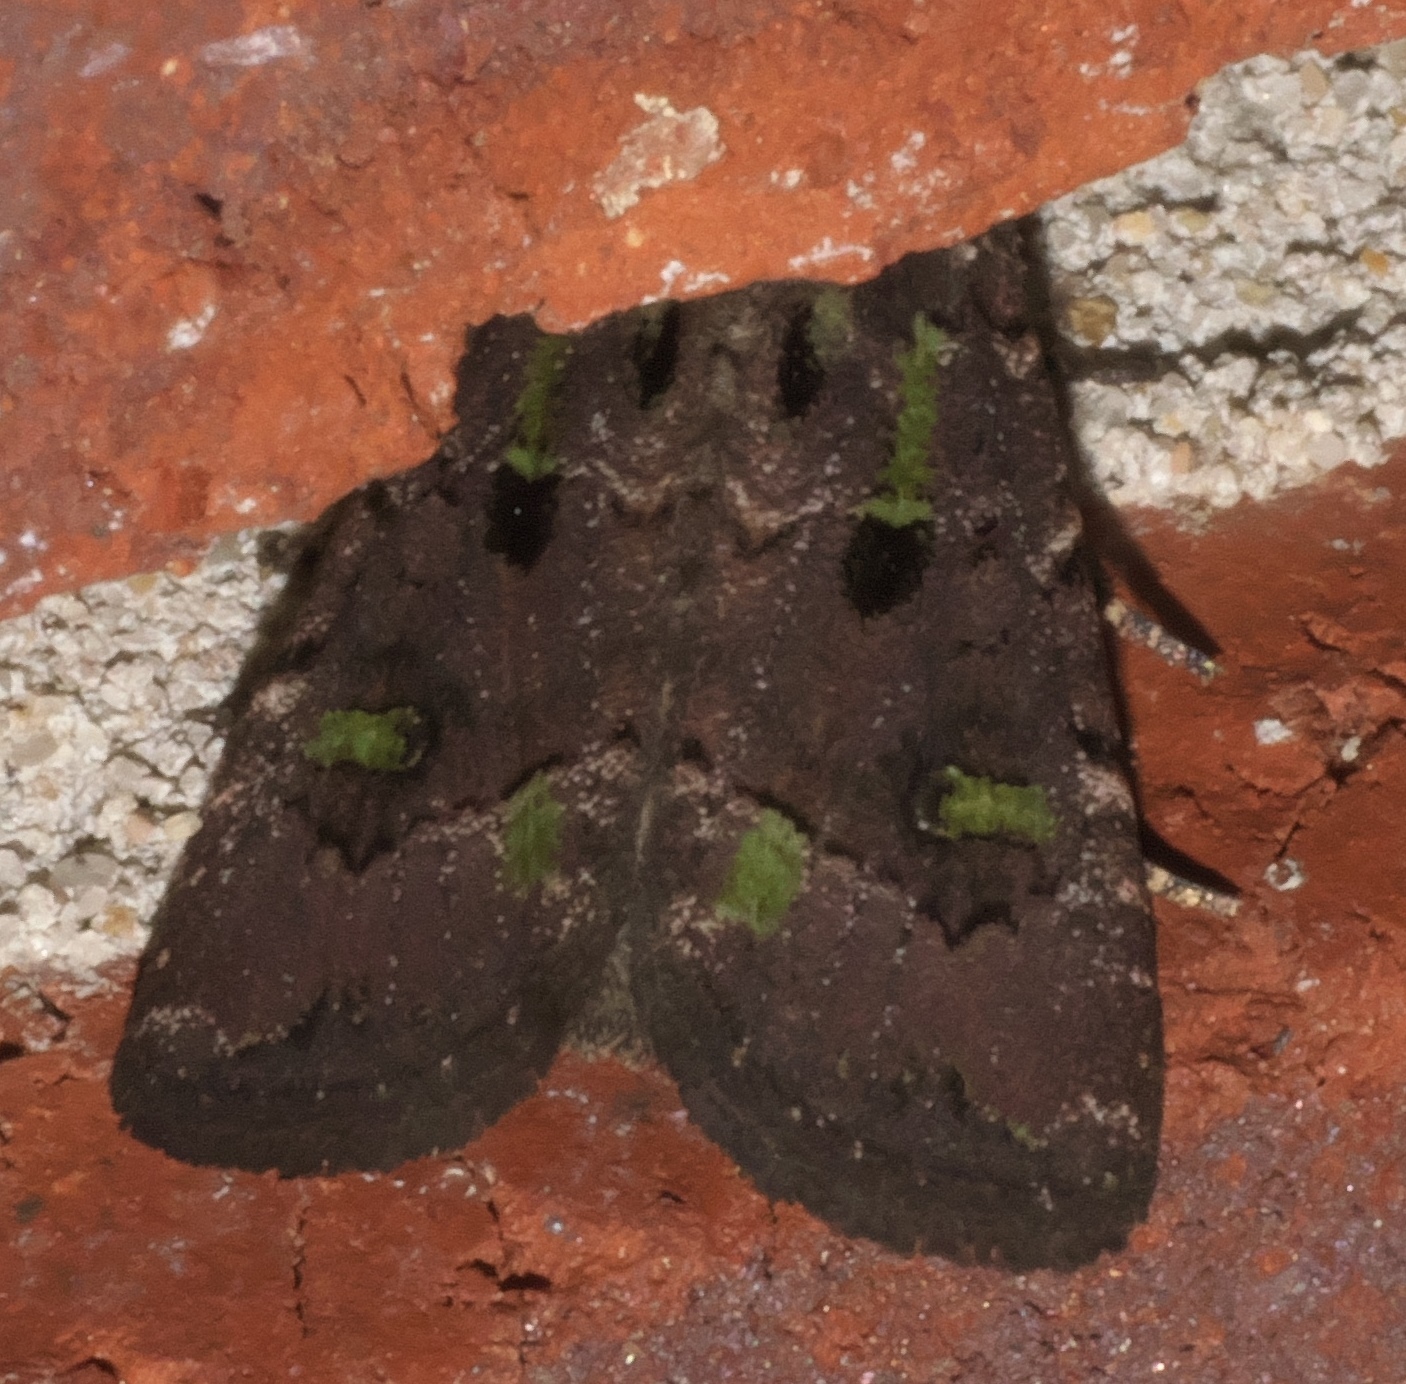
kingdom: Animalia
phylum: Arthropoda
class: Insecta
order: Lepidoptera
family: Noctuidae
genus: Lacinipolia
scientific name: Lacinipolia renigera
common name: Kidney-spotted minor
